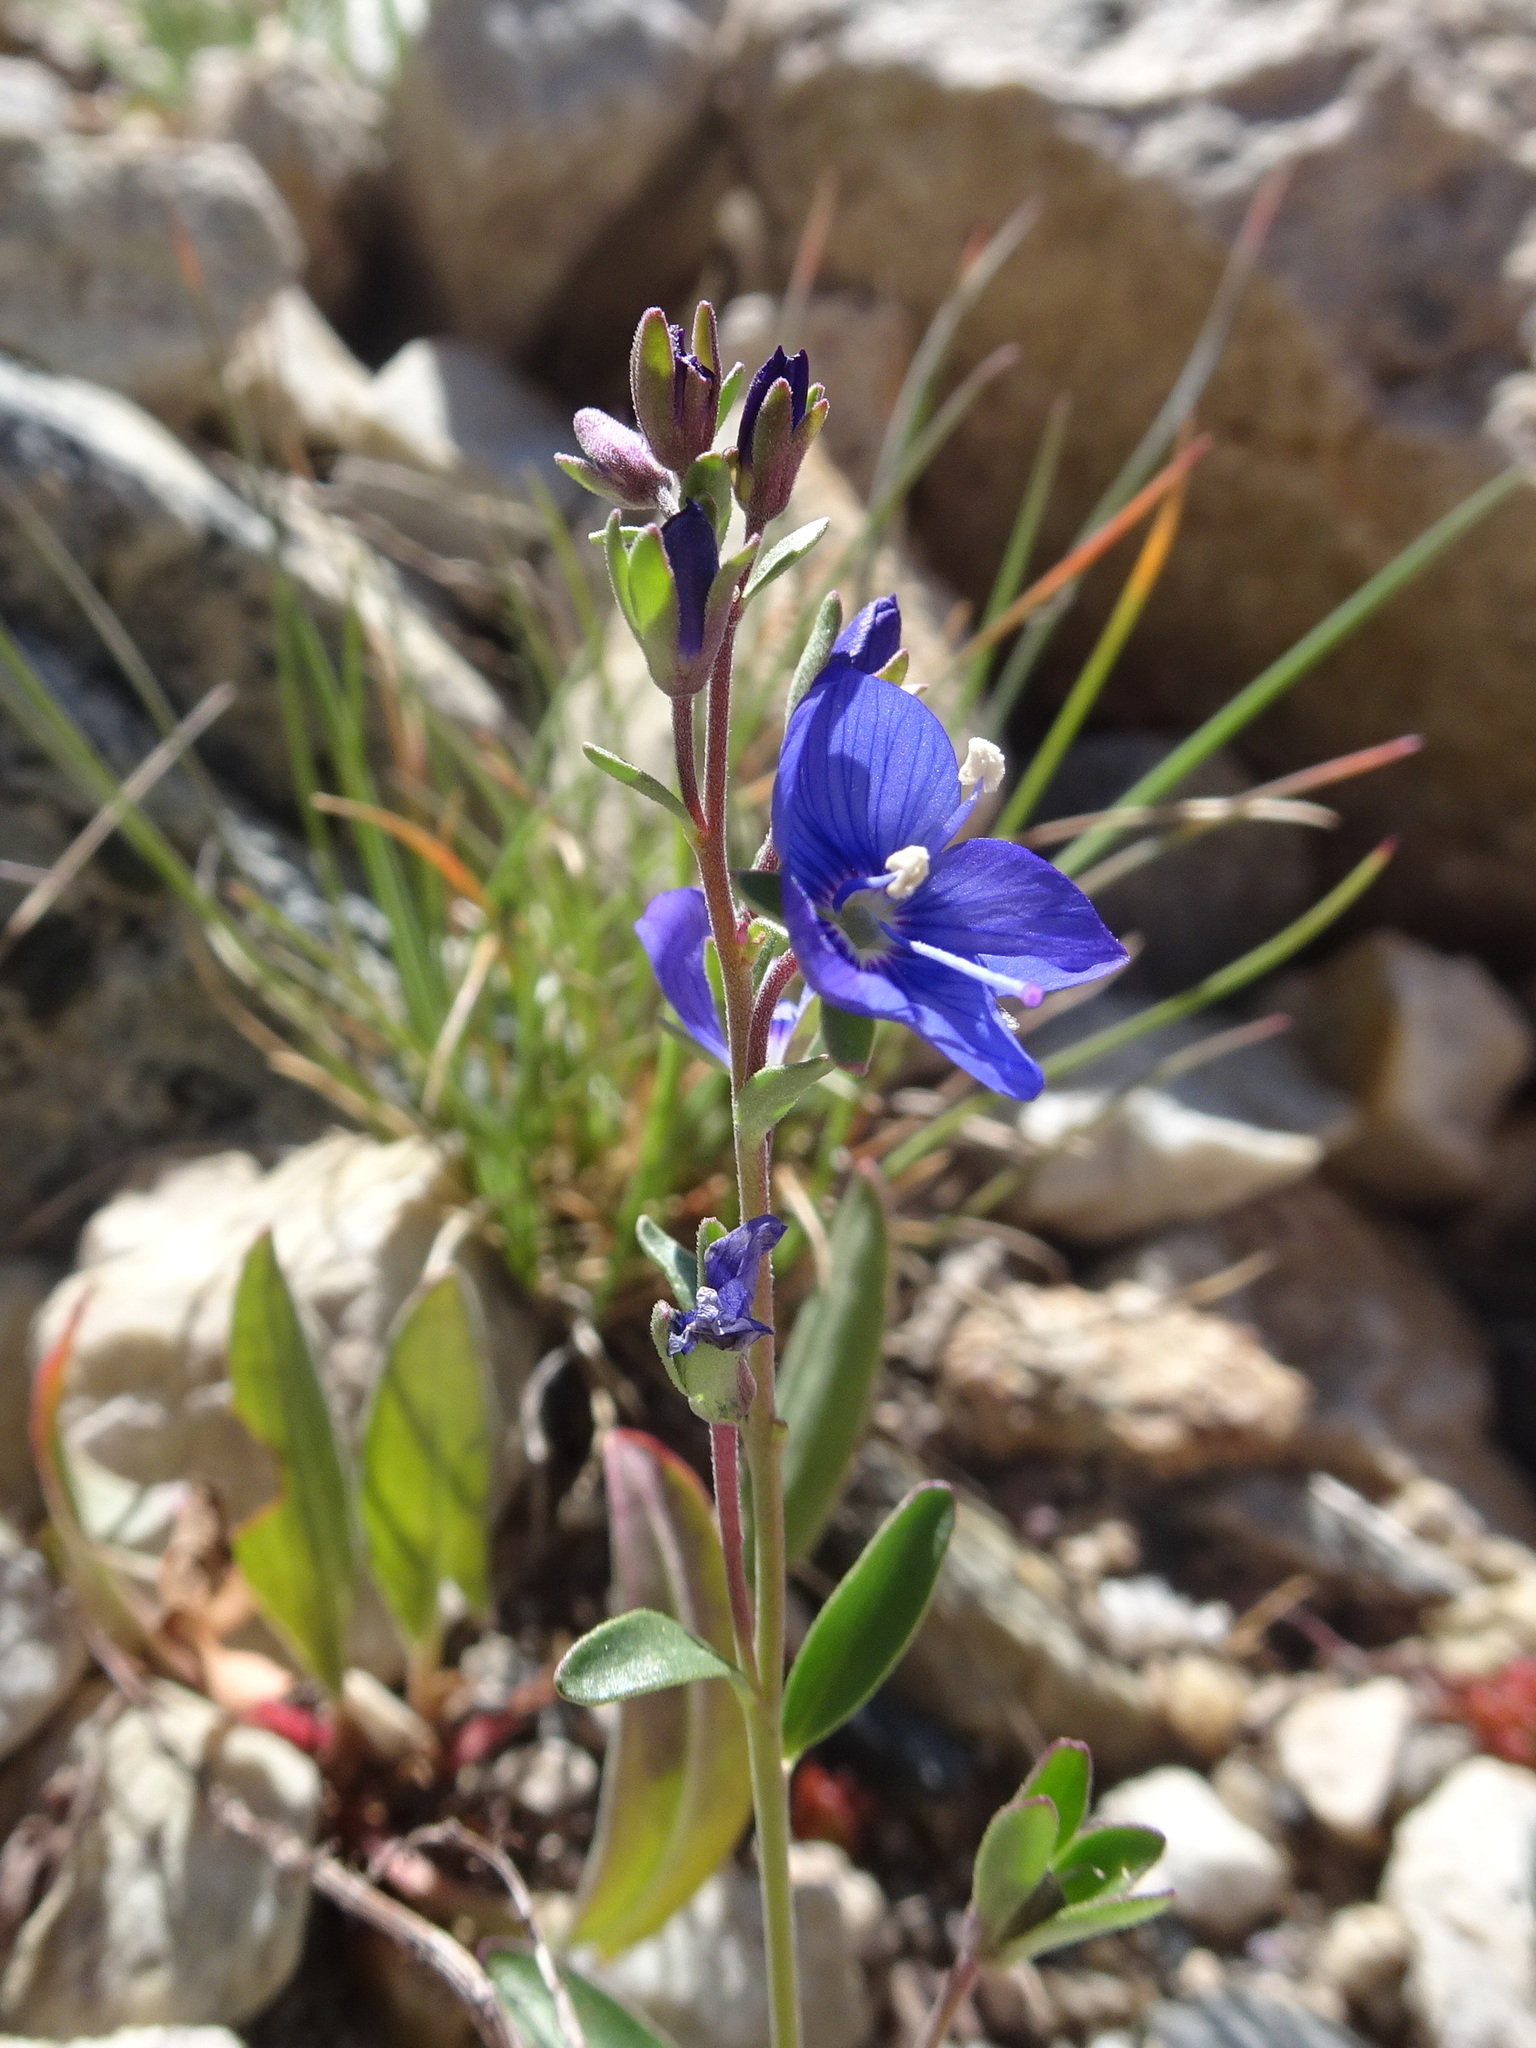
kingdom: Plantae
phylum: Tracheophyta
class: Magnoliopsida
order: Lamiales
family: Plantaginaceae
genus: Veronica
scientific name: Veronica fruticans
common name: Rock speedwell
